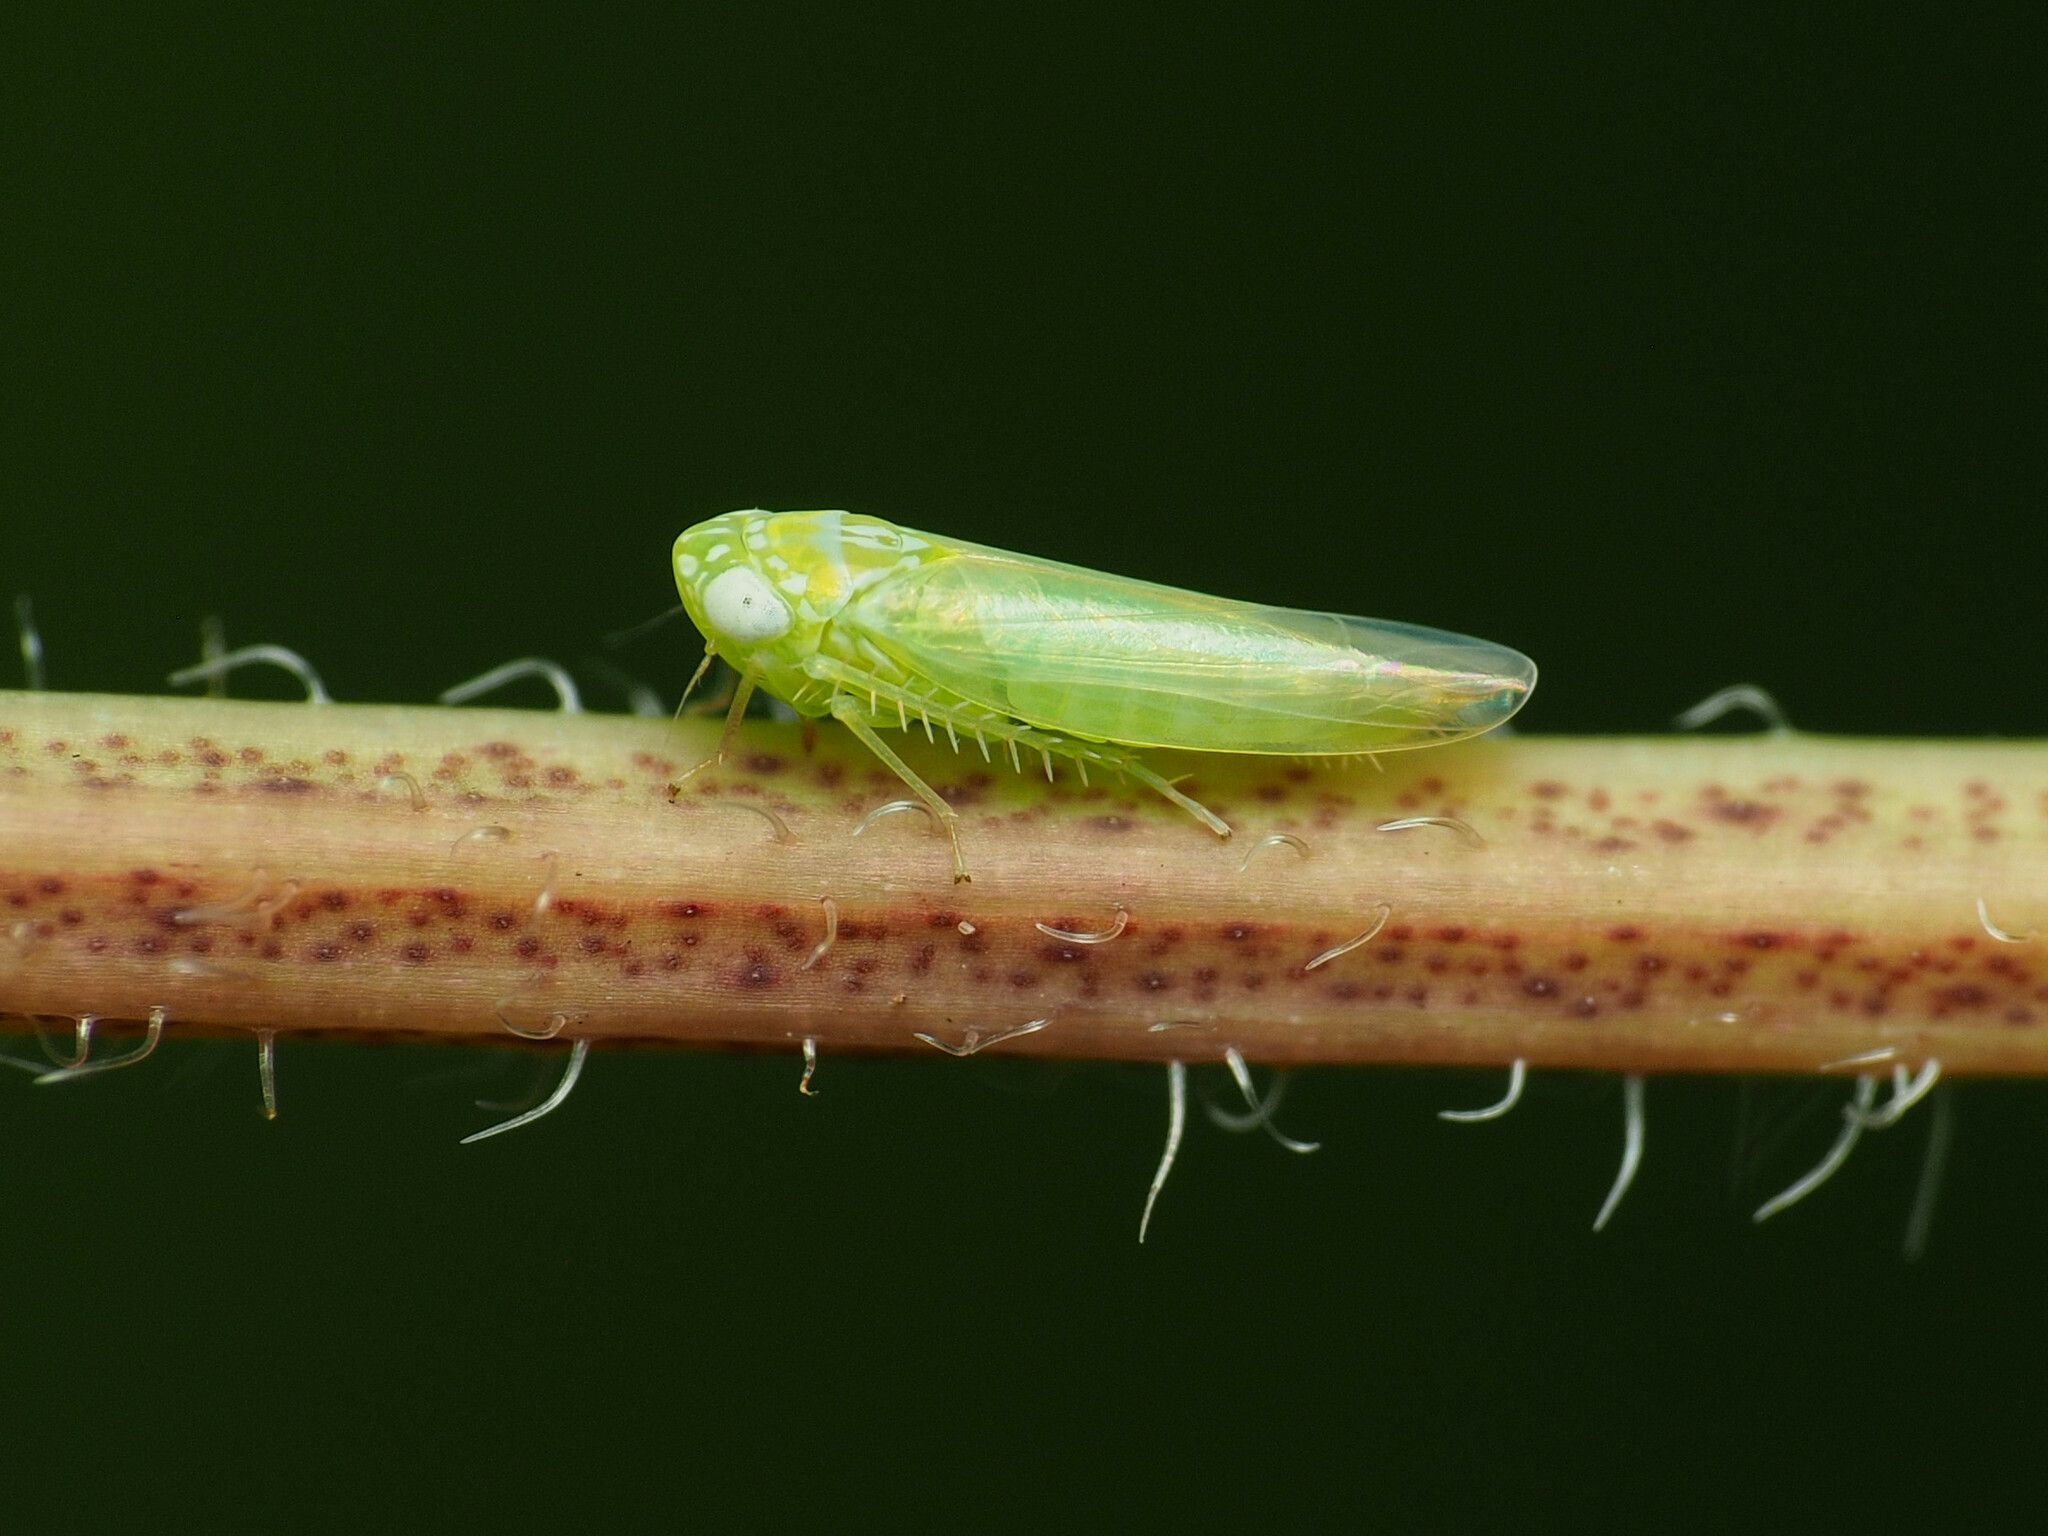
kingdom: Animalia
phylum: Arthropoda
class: Insecta
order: Hemiptera
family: Cicadellidae
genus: Empoasca
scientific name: Empoasca fabae
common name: Potato leafhopper
